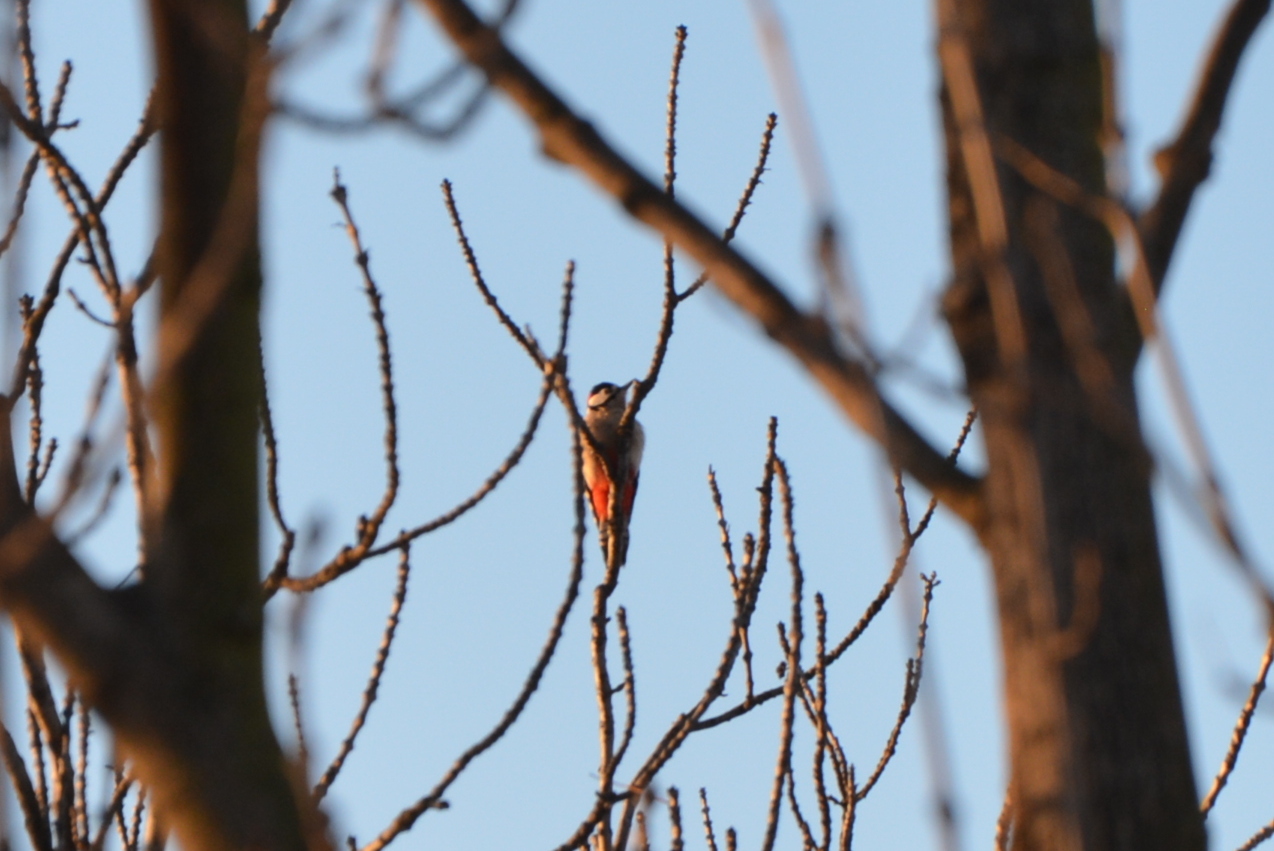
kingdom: Animalia
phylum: Chordata
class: Aves
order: Piciformes
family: Picidae
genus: Dendrocopos
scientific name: Dendrocopos major
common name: Great spotted woodpecker
